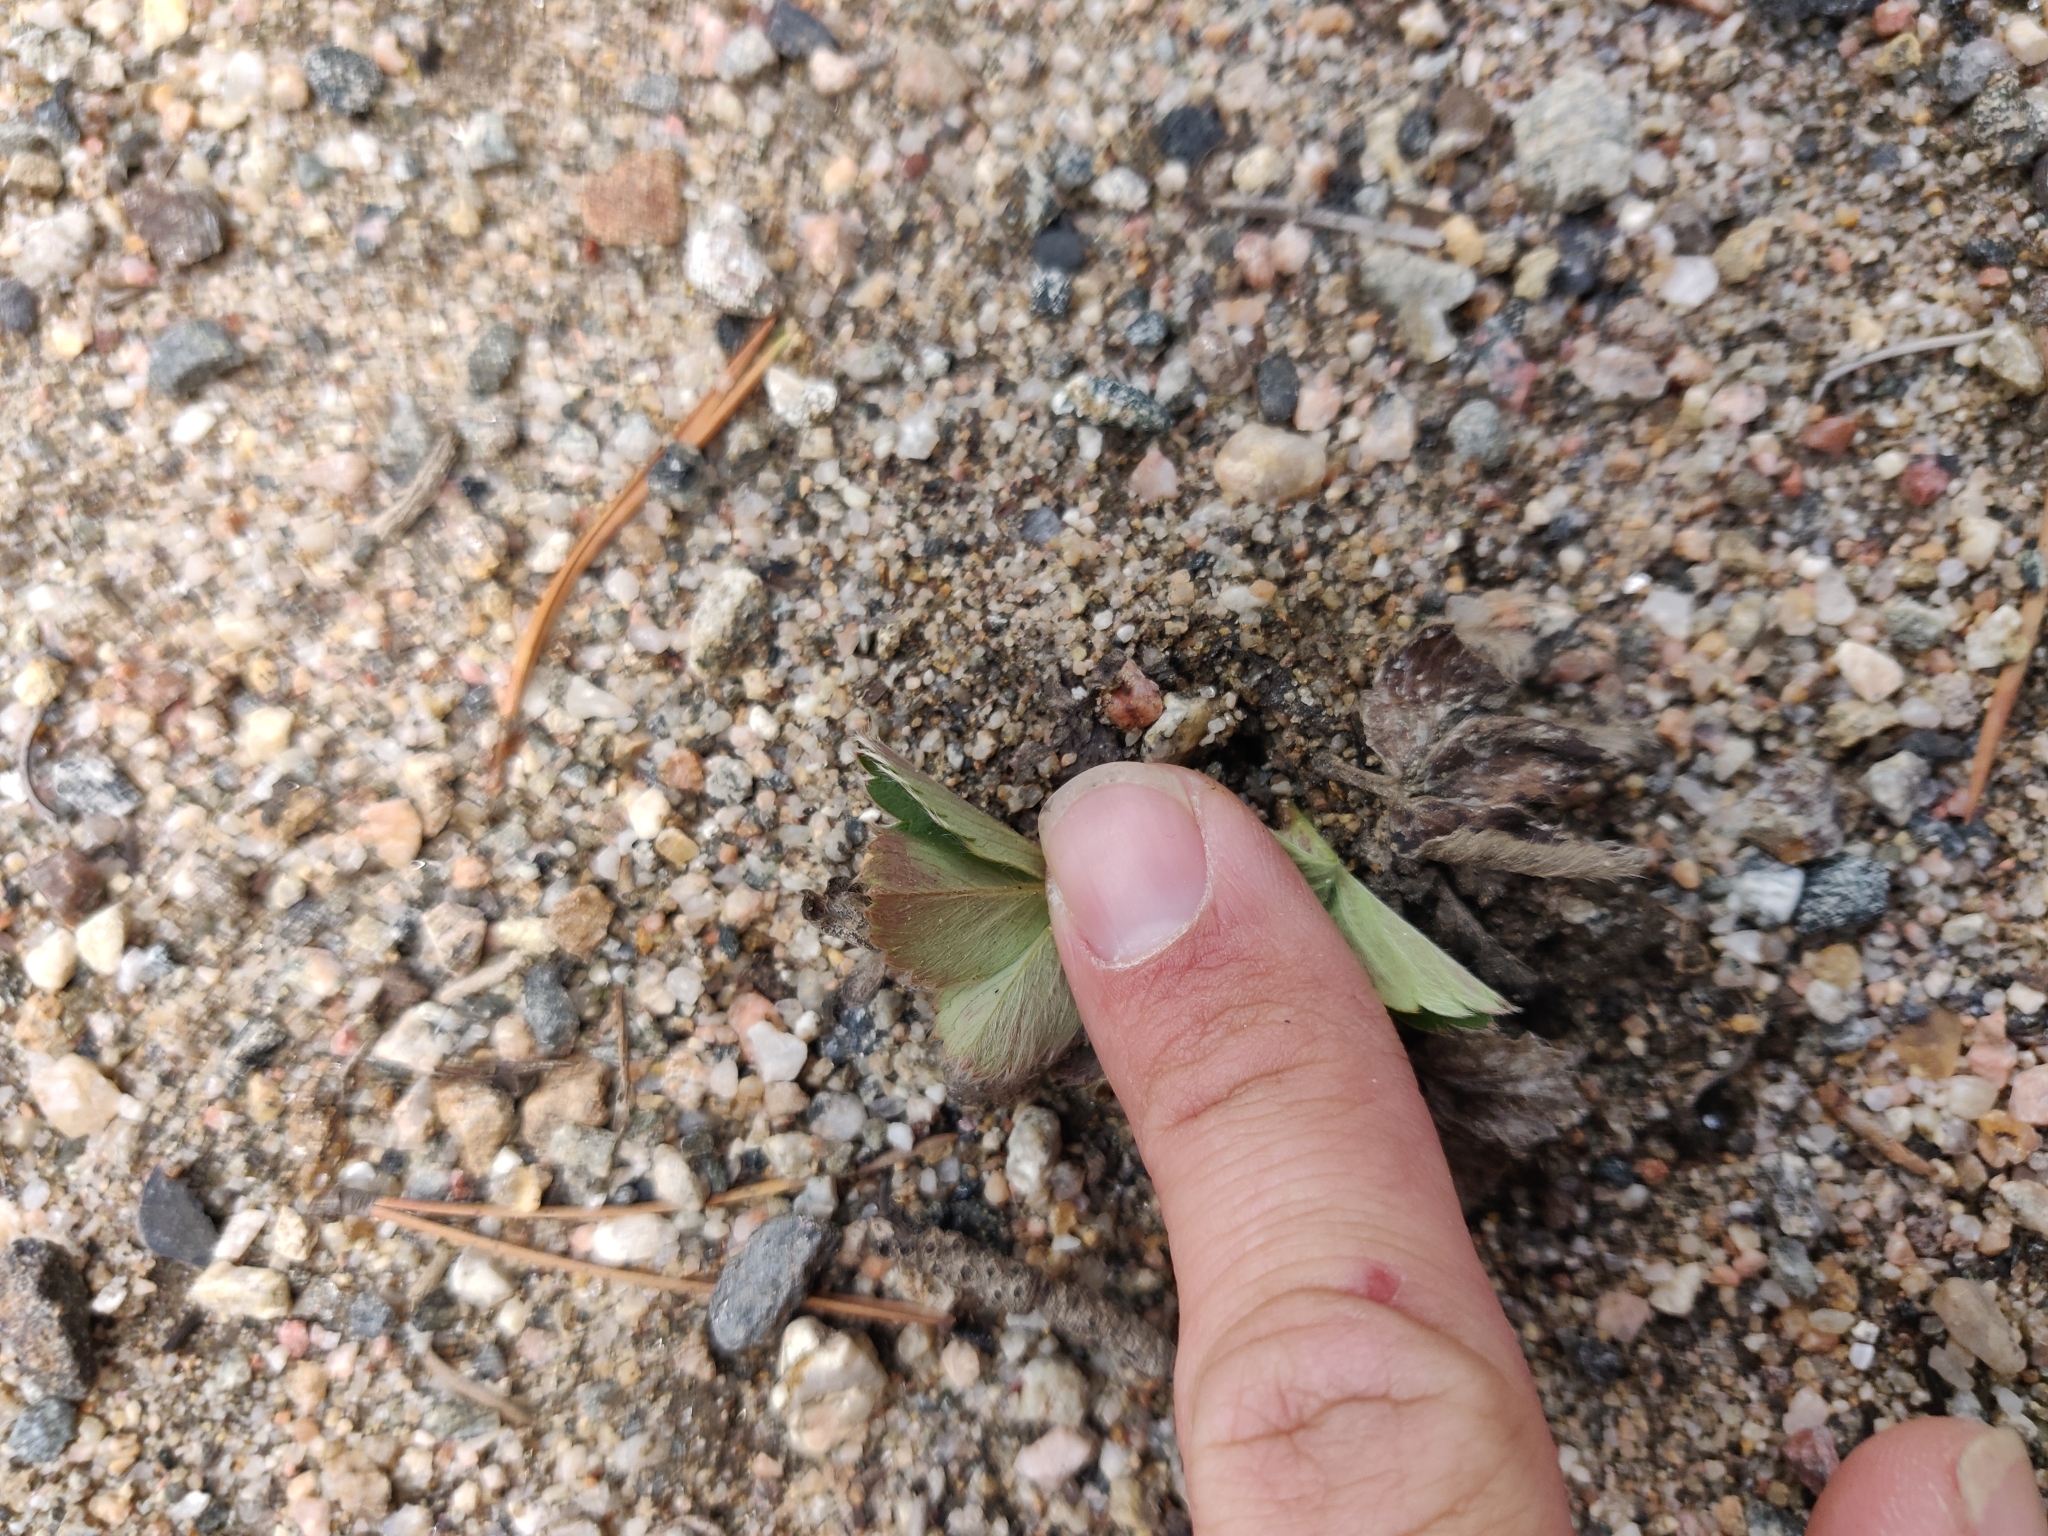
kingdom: Plantae
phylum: Tracheophyta
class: Magnoliopsida
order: Rosales
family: Rosaceae
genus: Fragaria
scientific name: Fragaria virginiana
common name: Thickleaved wild strawberry
